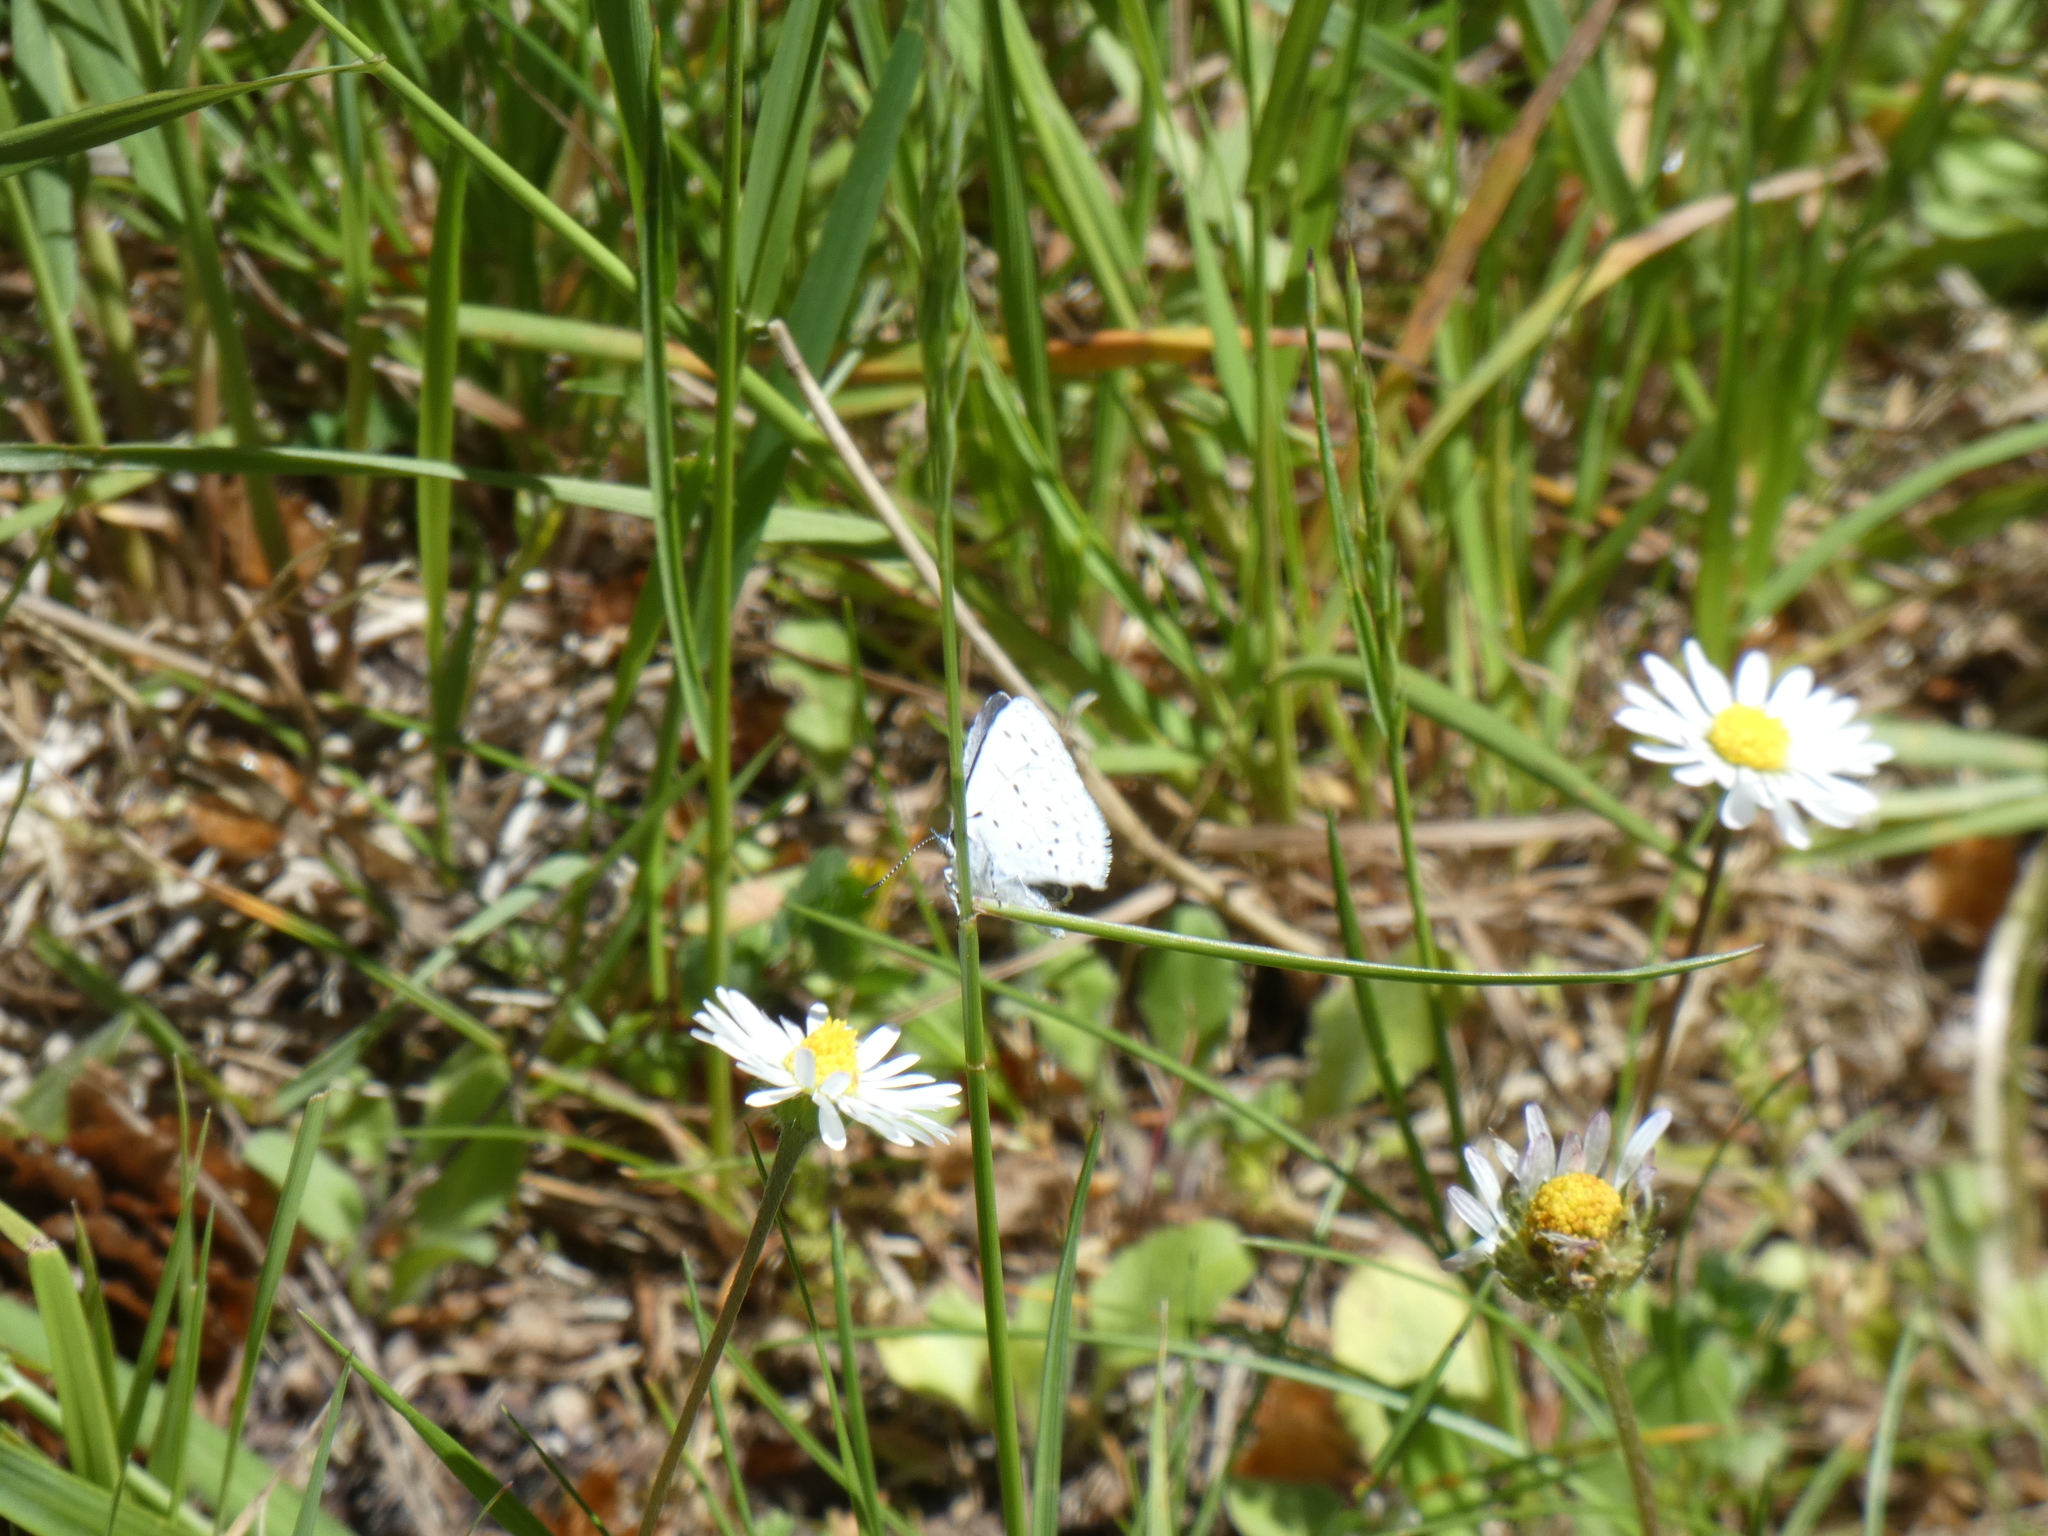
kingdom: Animalia
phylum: Arthropoda
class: Insecta
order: Lepidoptera
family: Lycaenidae
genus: Celastrina
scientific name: Celastrina ladon
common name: Spring azure
